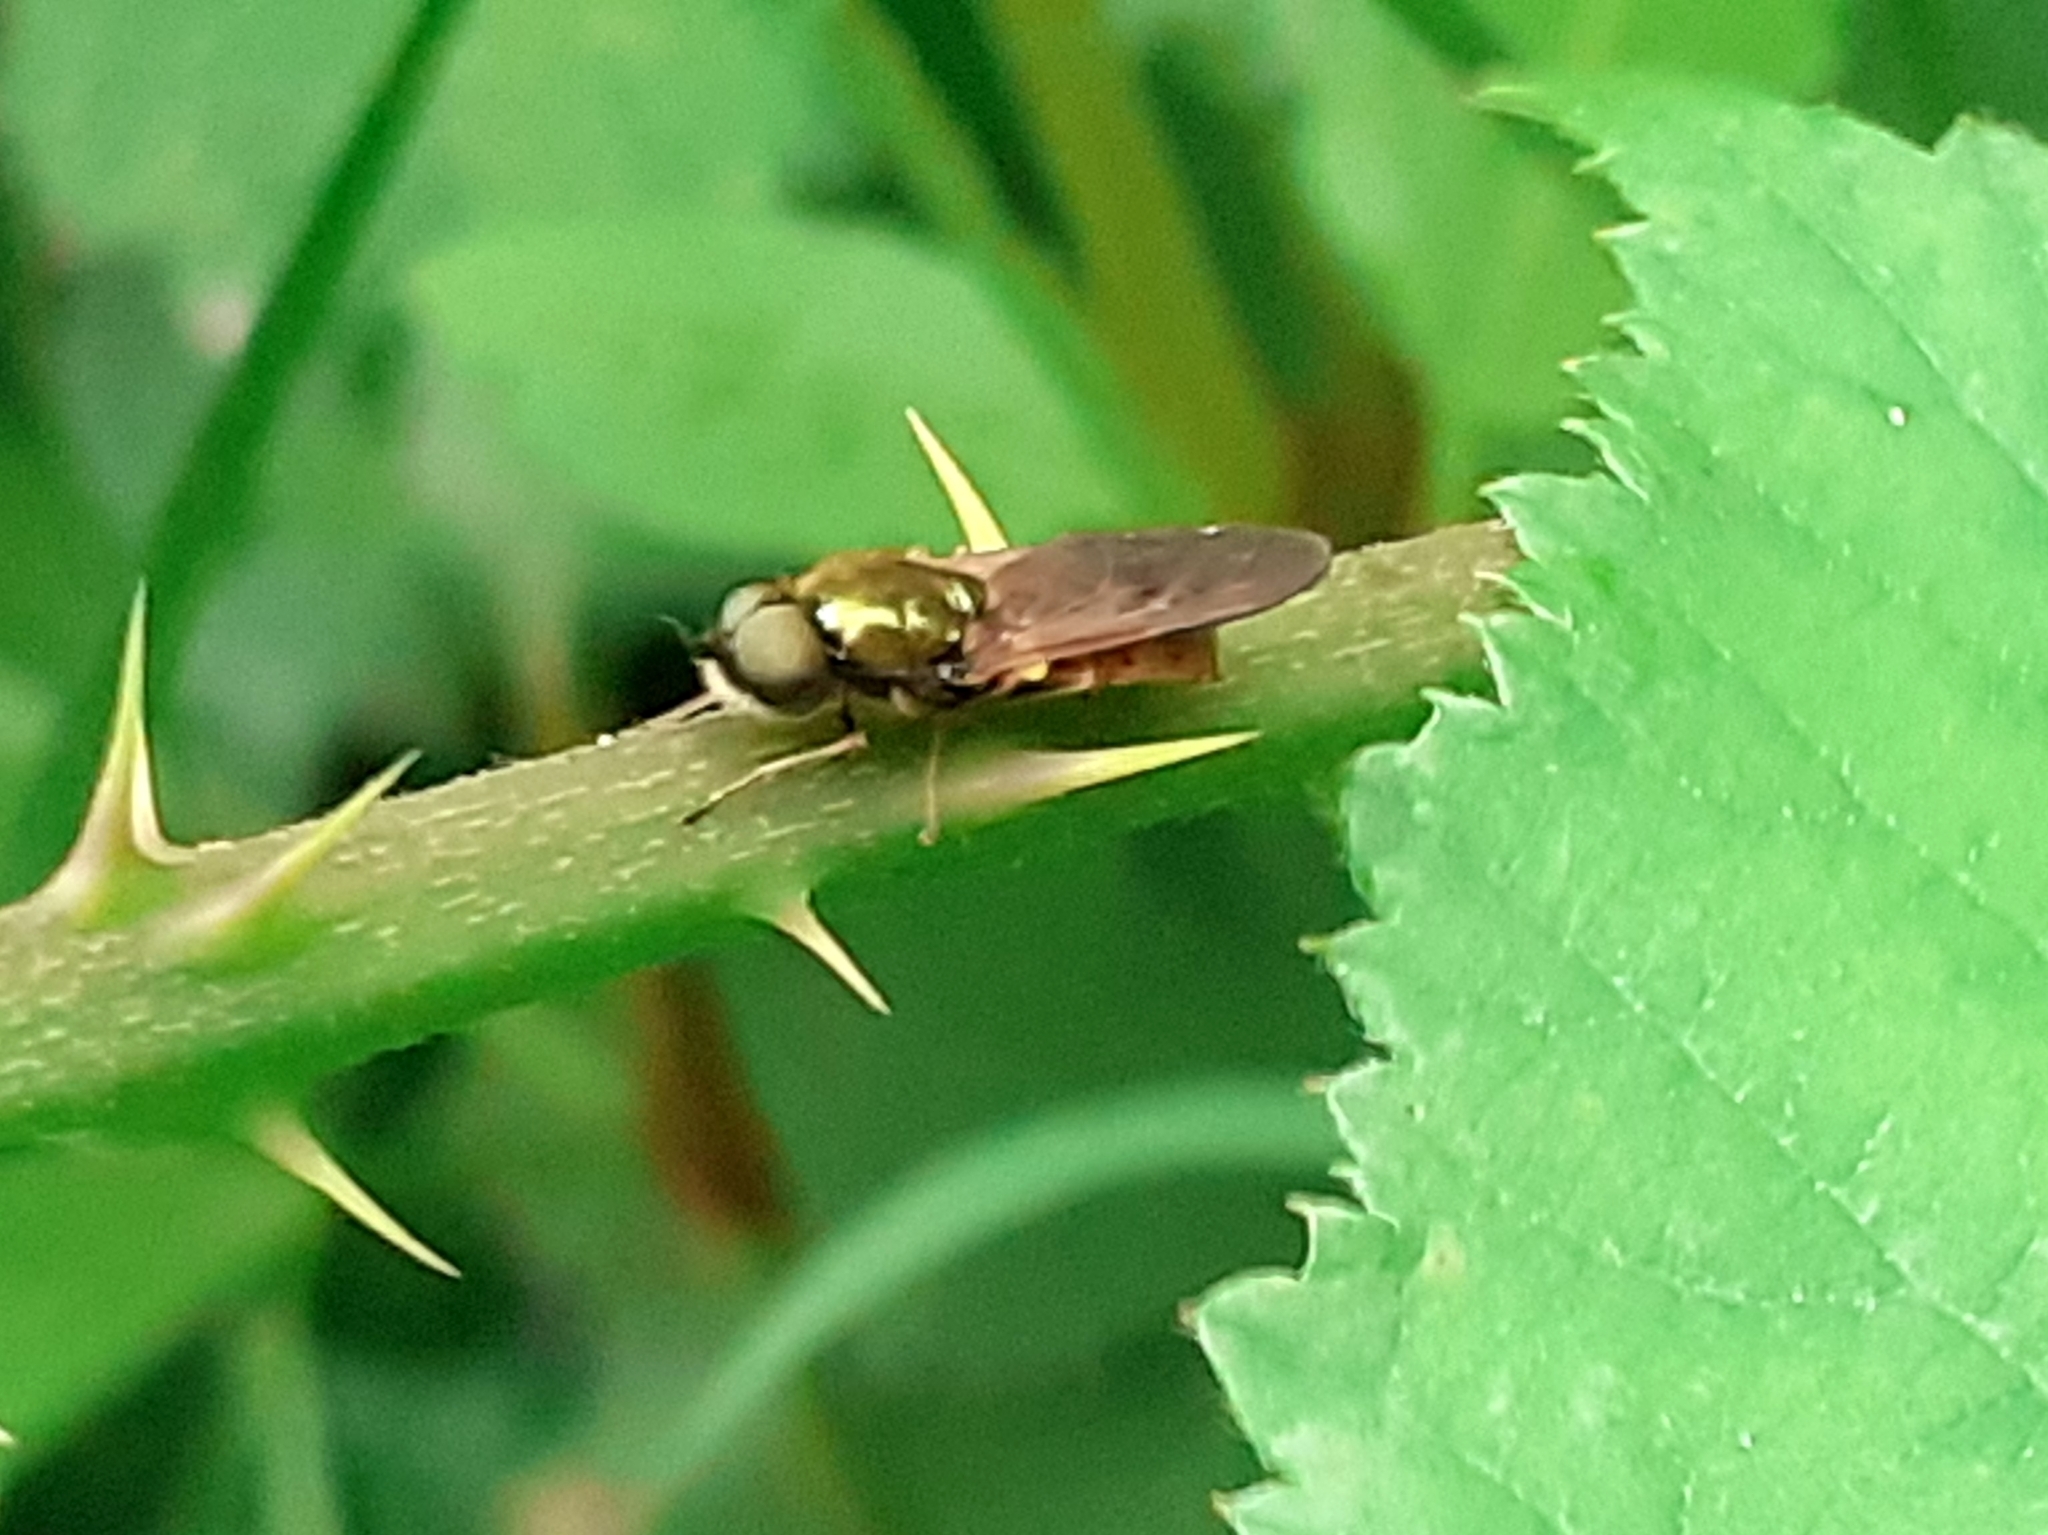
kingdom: Animalia
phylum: Arthropoda
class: Insecta
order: Diptera
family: Stratiomyidae
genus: Chloromyia
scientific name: Chloromyia formosa
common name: Soldier fly
